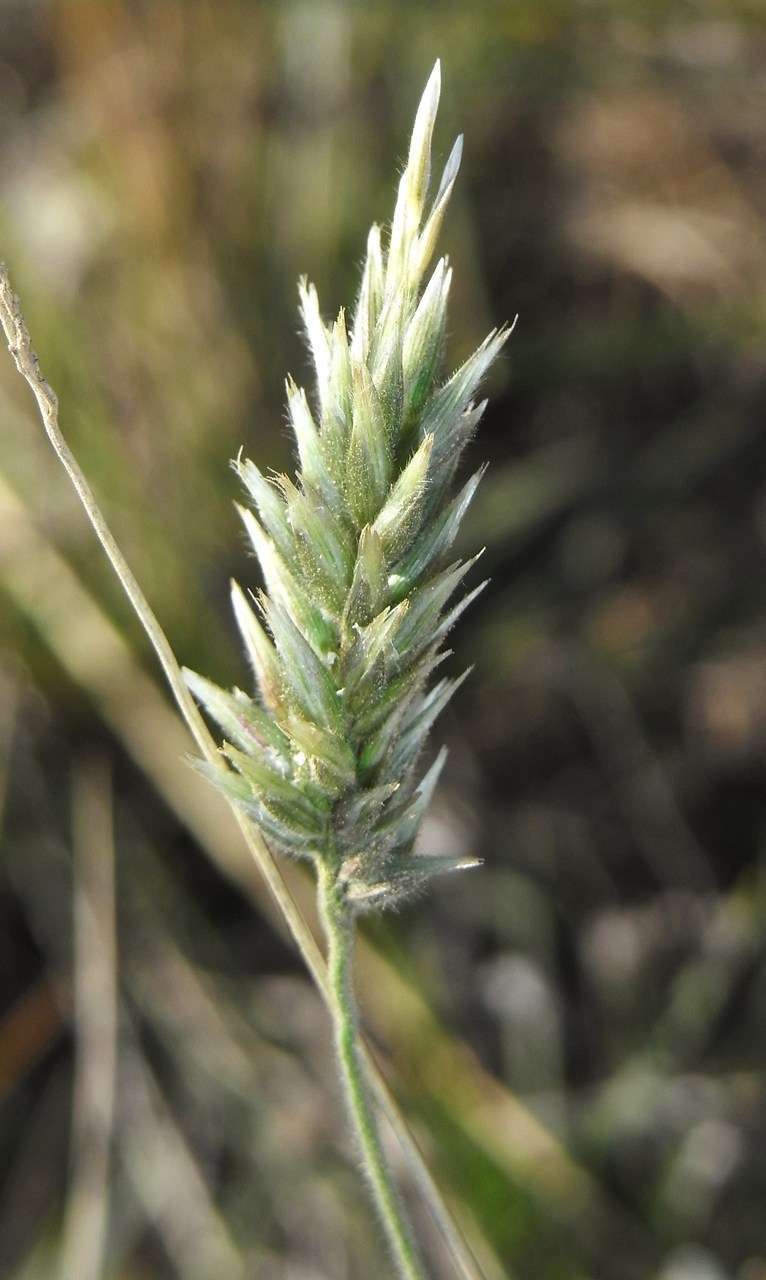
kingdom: Plantae
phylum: Tracheophyta
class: Liliopsida
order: Poales
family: Poaceae
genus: Enneapogon
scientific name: Enneapogon nigricans
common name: Pappus grass
